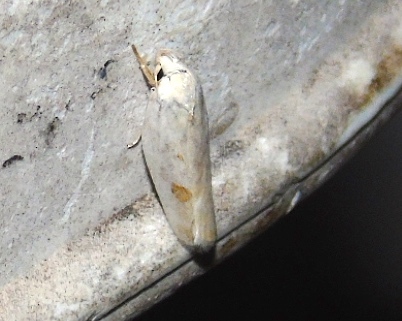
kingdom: Animalia
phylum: Arthropoda
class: Insecta
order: Lepidoptera
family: Depressariidae
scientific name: Depressariidae
